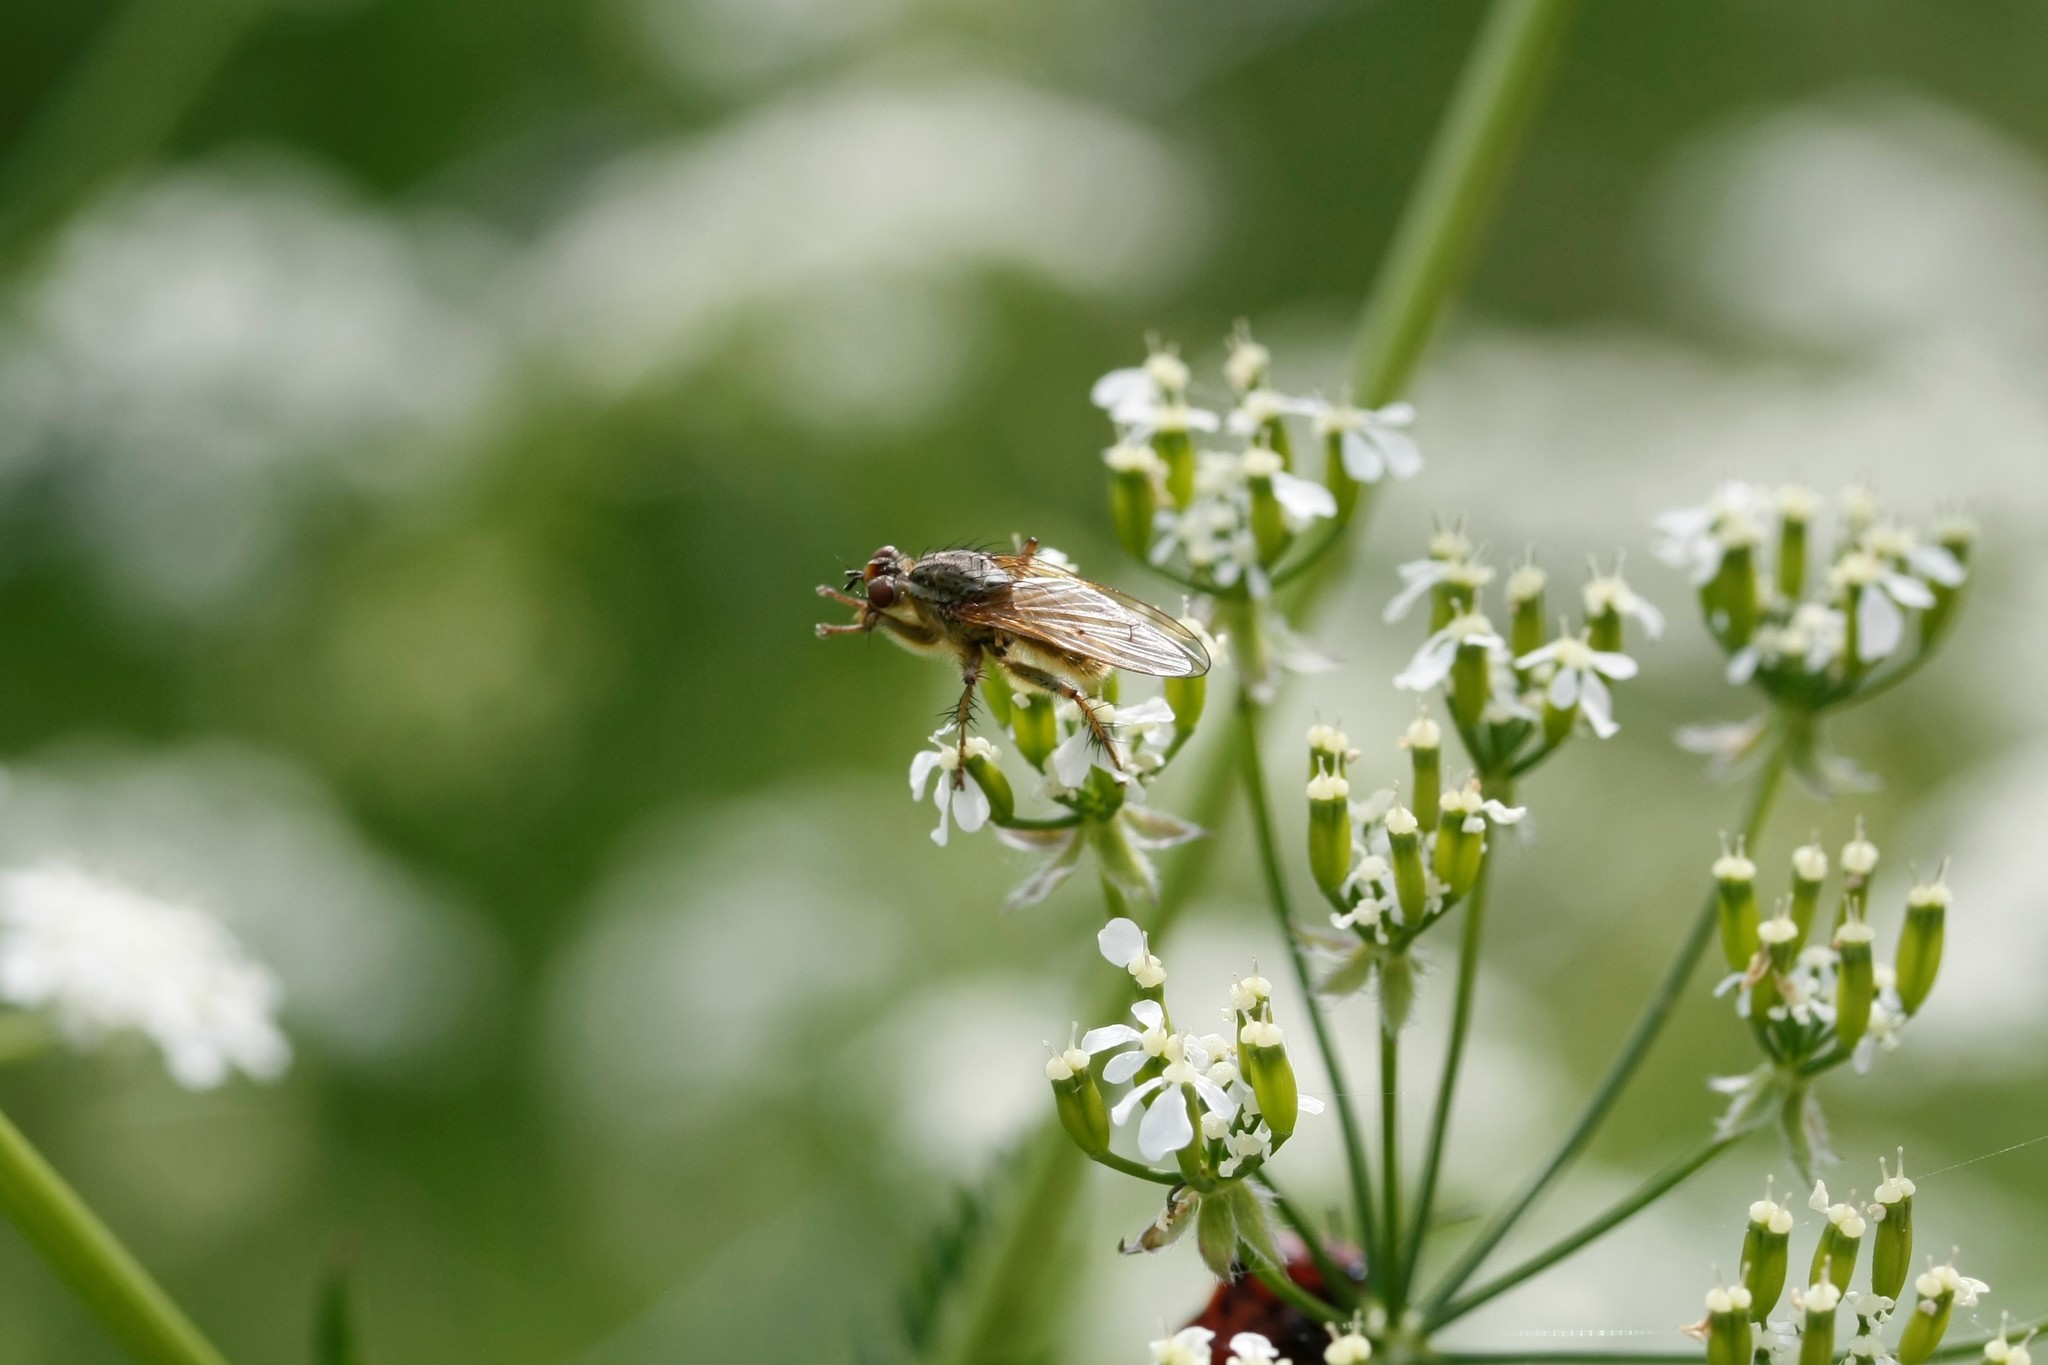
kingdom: Animalia
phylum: Arthropoda
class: Insecta
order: Diptera
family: Scathophagidae
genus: Scathophaga
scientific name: Scathophaga stercoraria
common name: Yellow dung fly
